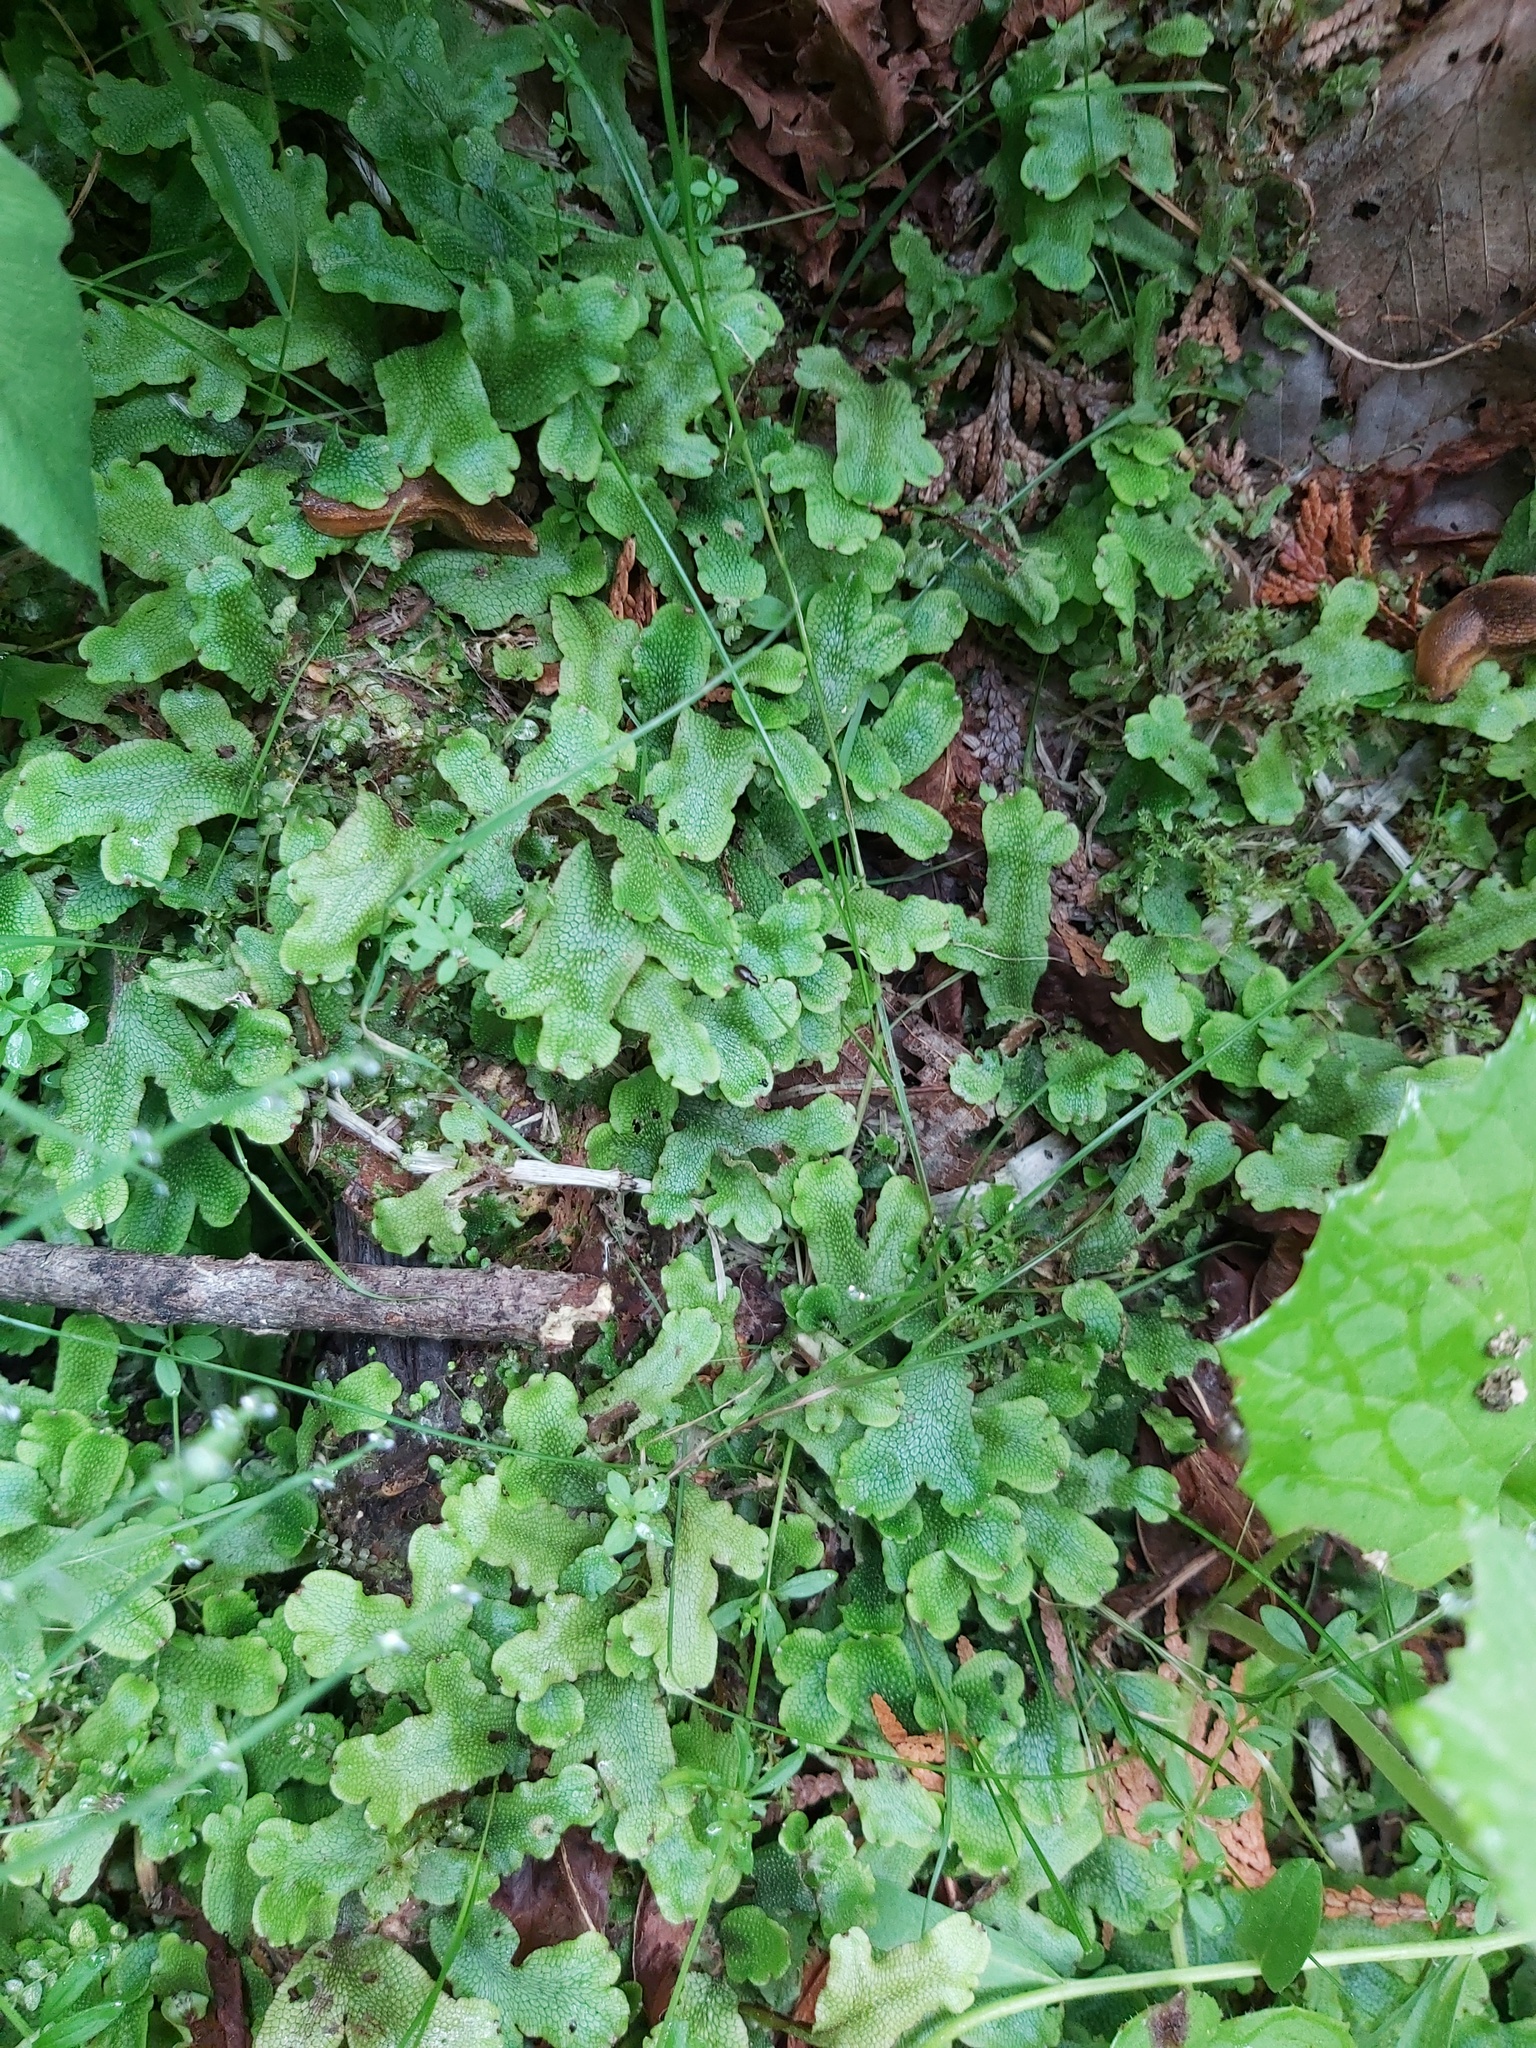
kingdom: Plantae
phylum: Marchantiophyta
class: Marchantiopsida
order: Marchantiales
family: Conocephalaceae
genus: Conocephalum
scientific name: Conocephalum salebrosum
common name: Cat-tongue liverwort
